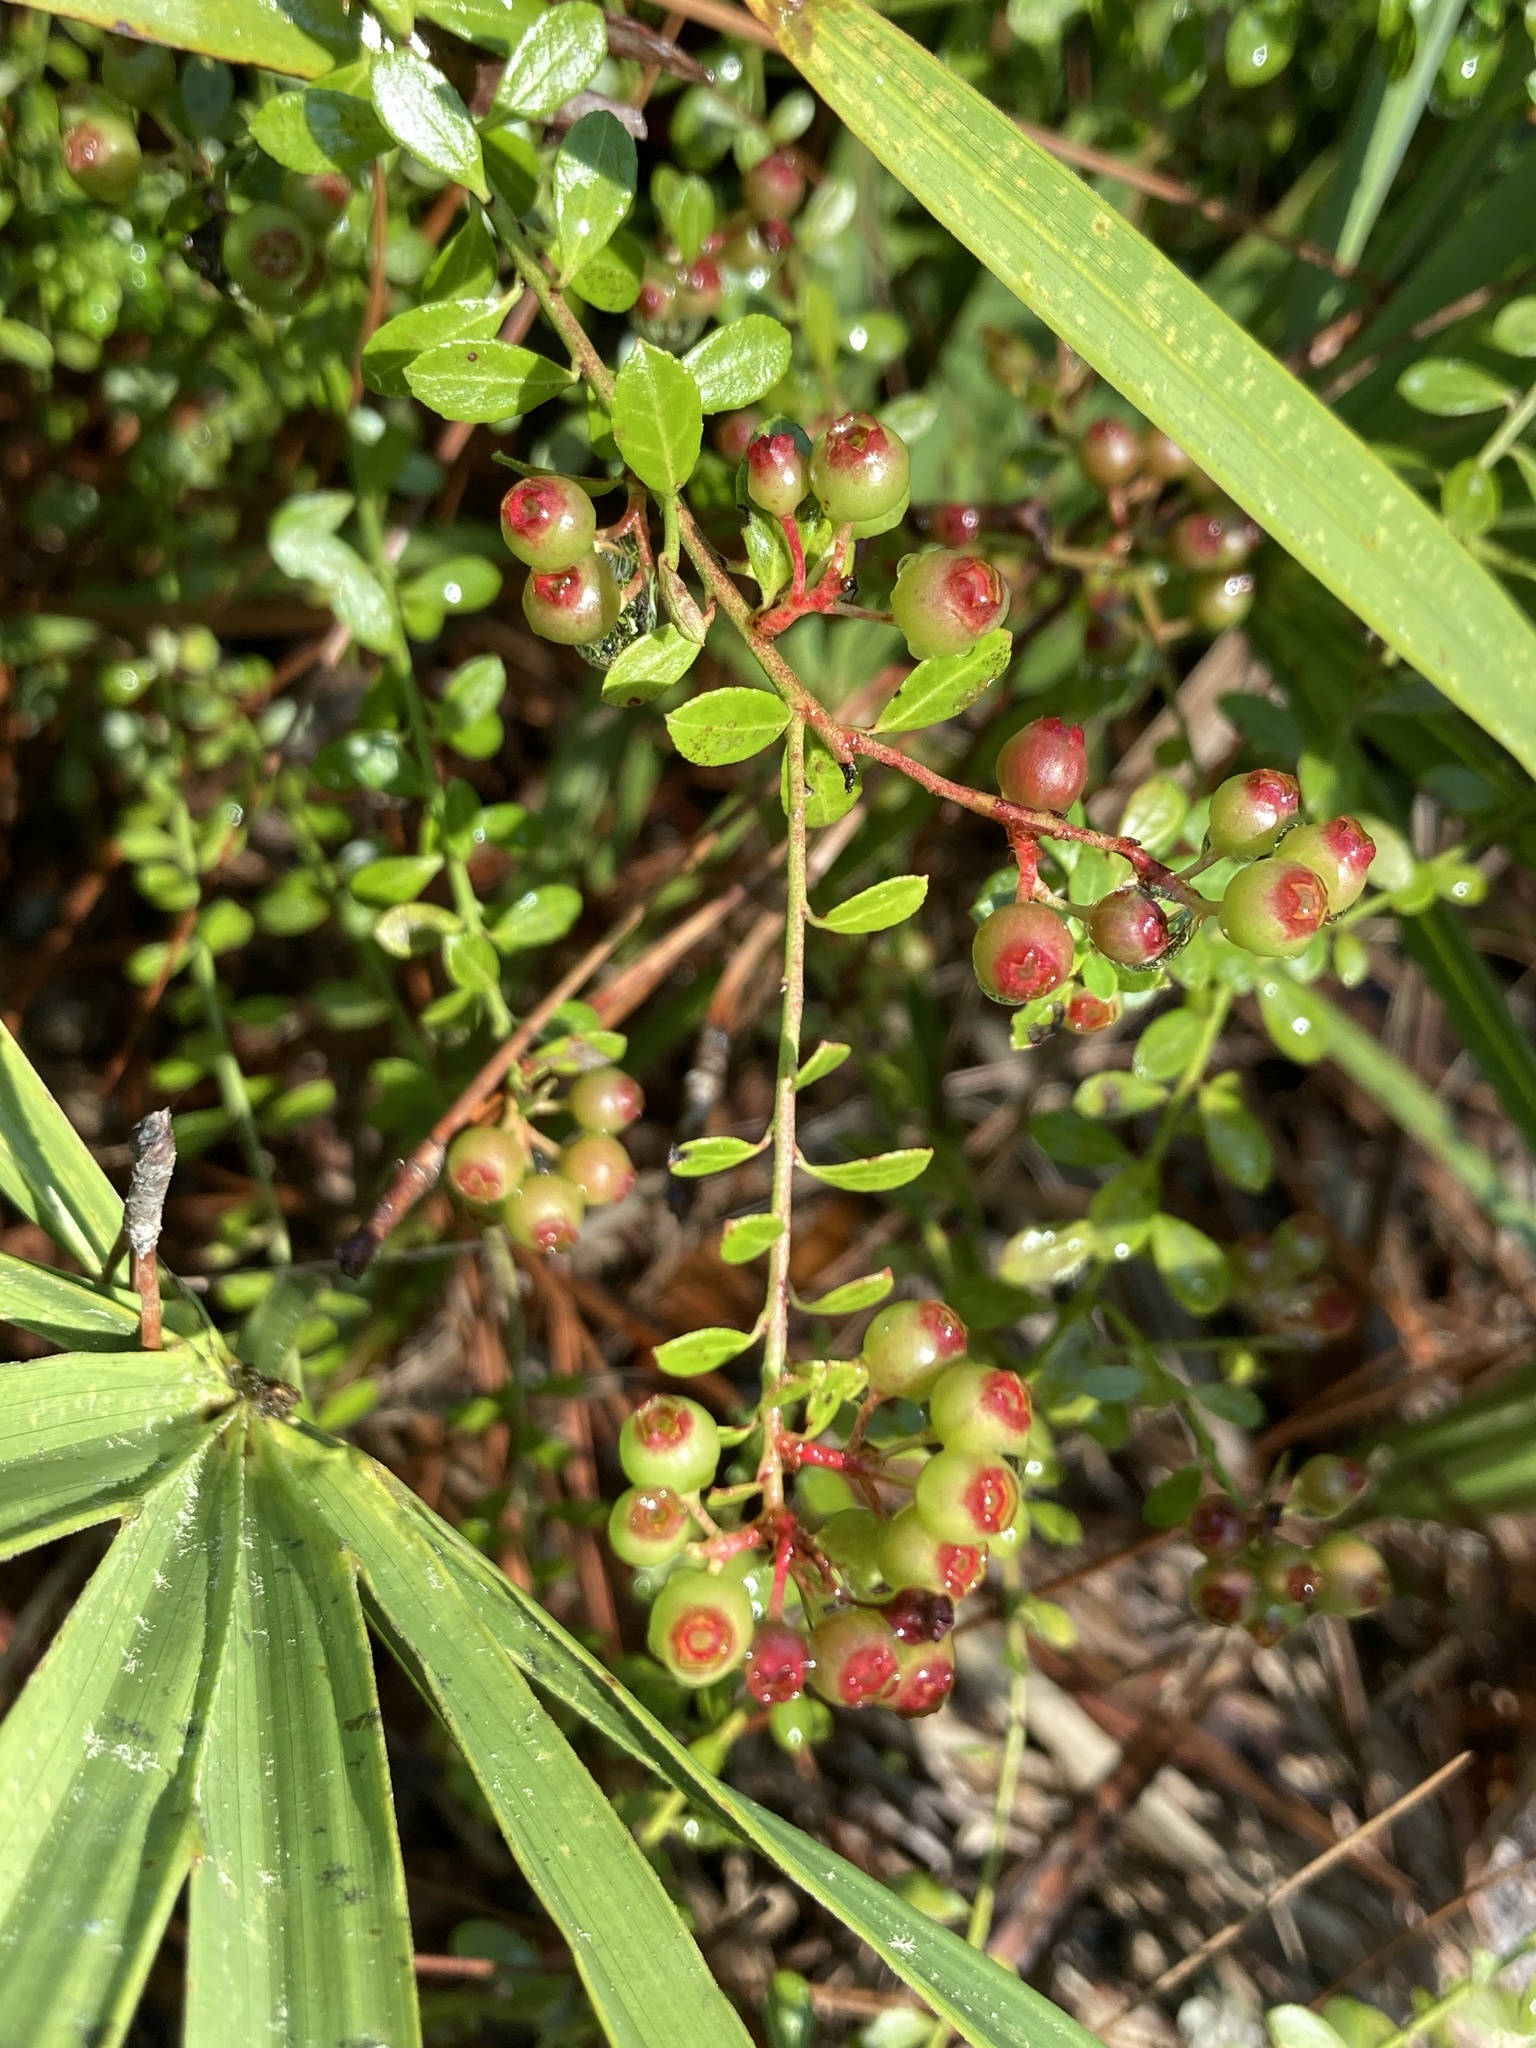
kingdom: Plantae
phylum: Tracheophyta
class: Magnoliopsida
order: Ericales
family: Ericaceae
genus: Vaccinium
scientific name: Vaccinium myrsinites
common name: Evergreen blueberry
